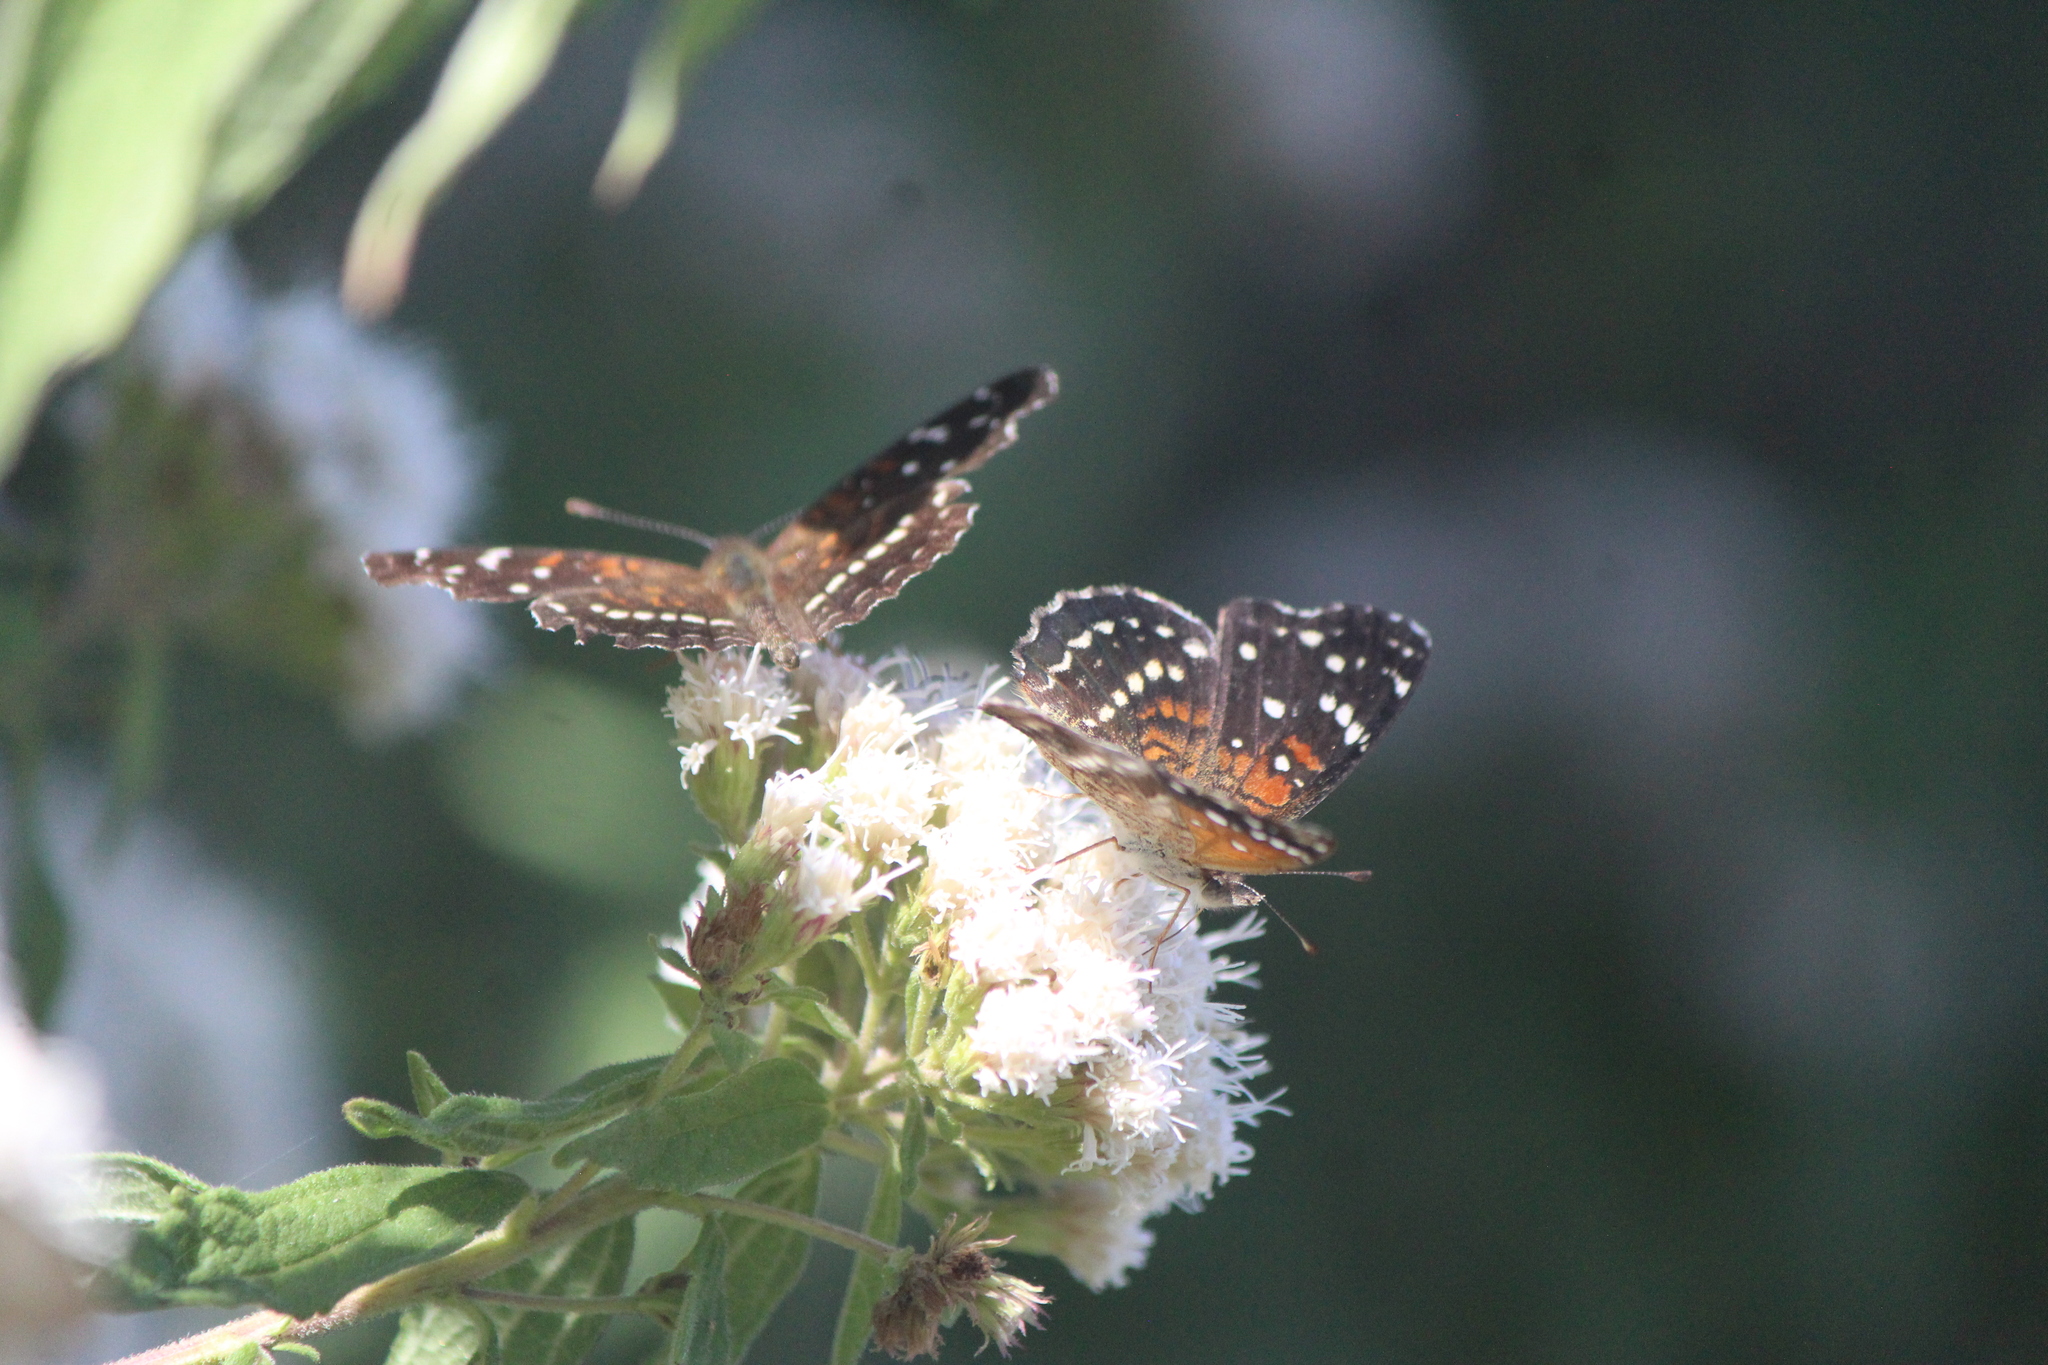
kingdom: Animalia
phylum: Arthropoda
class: Insecta
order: Lepidoptera
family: Nymphalidae
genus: Anthanassa
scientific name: Anthanassa texana
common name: Texan crescent
